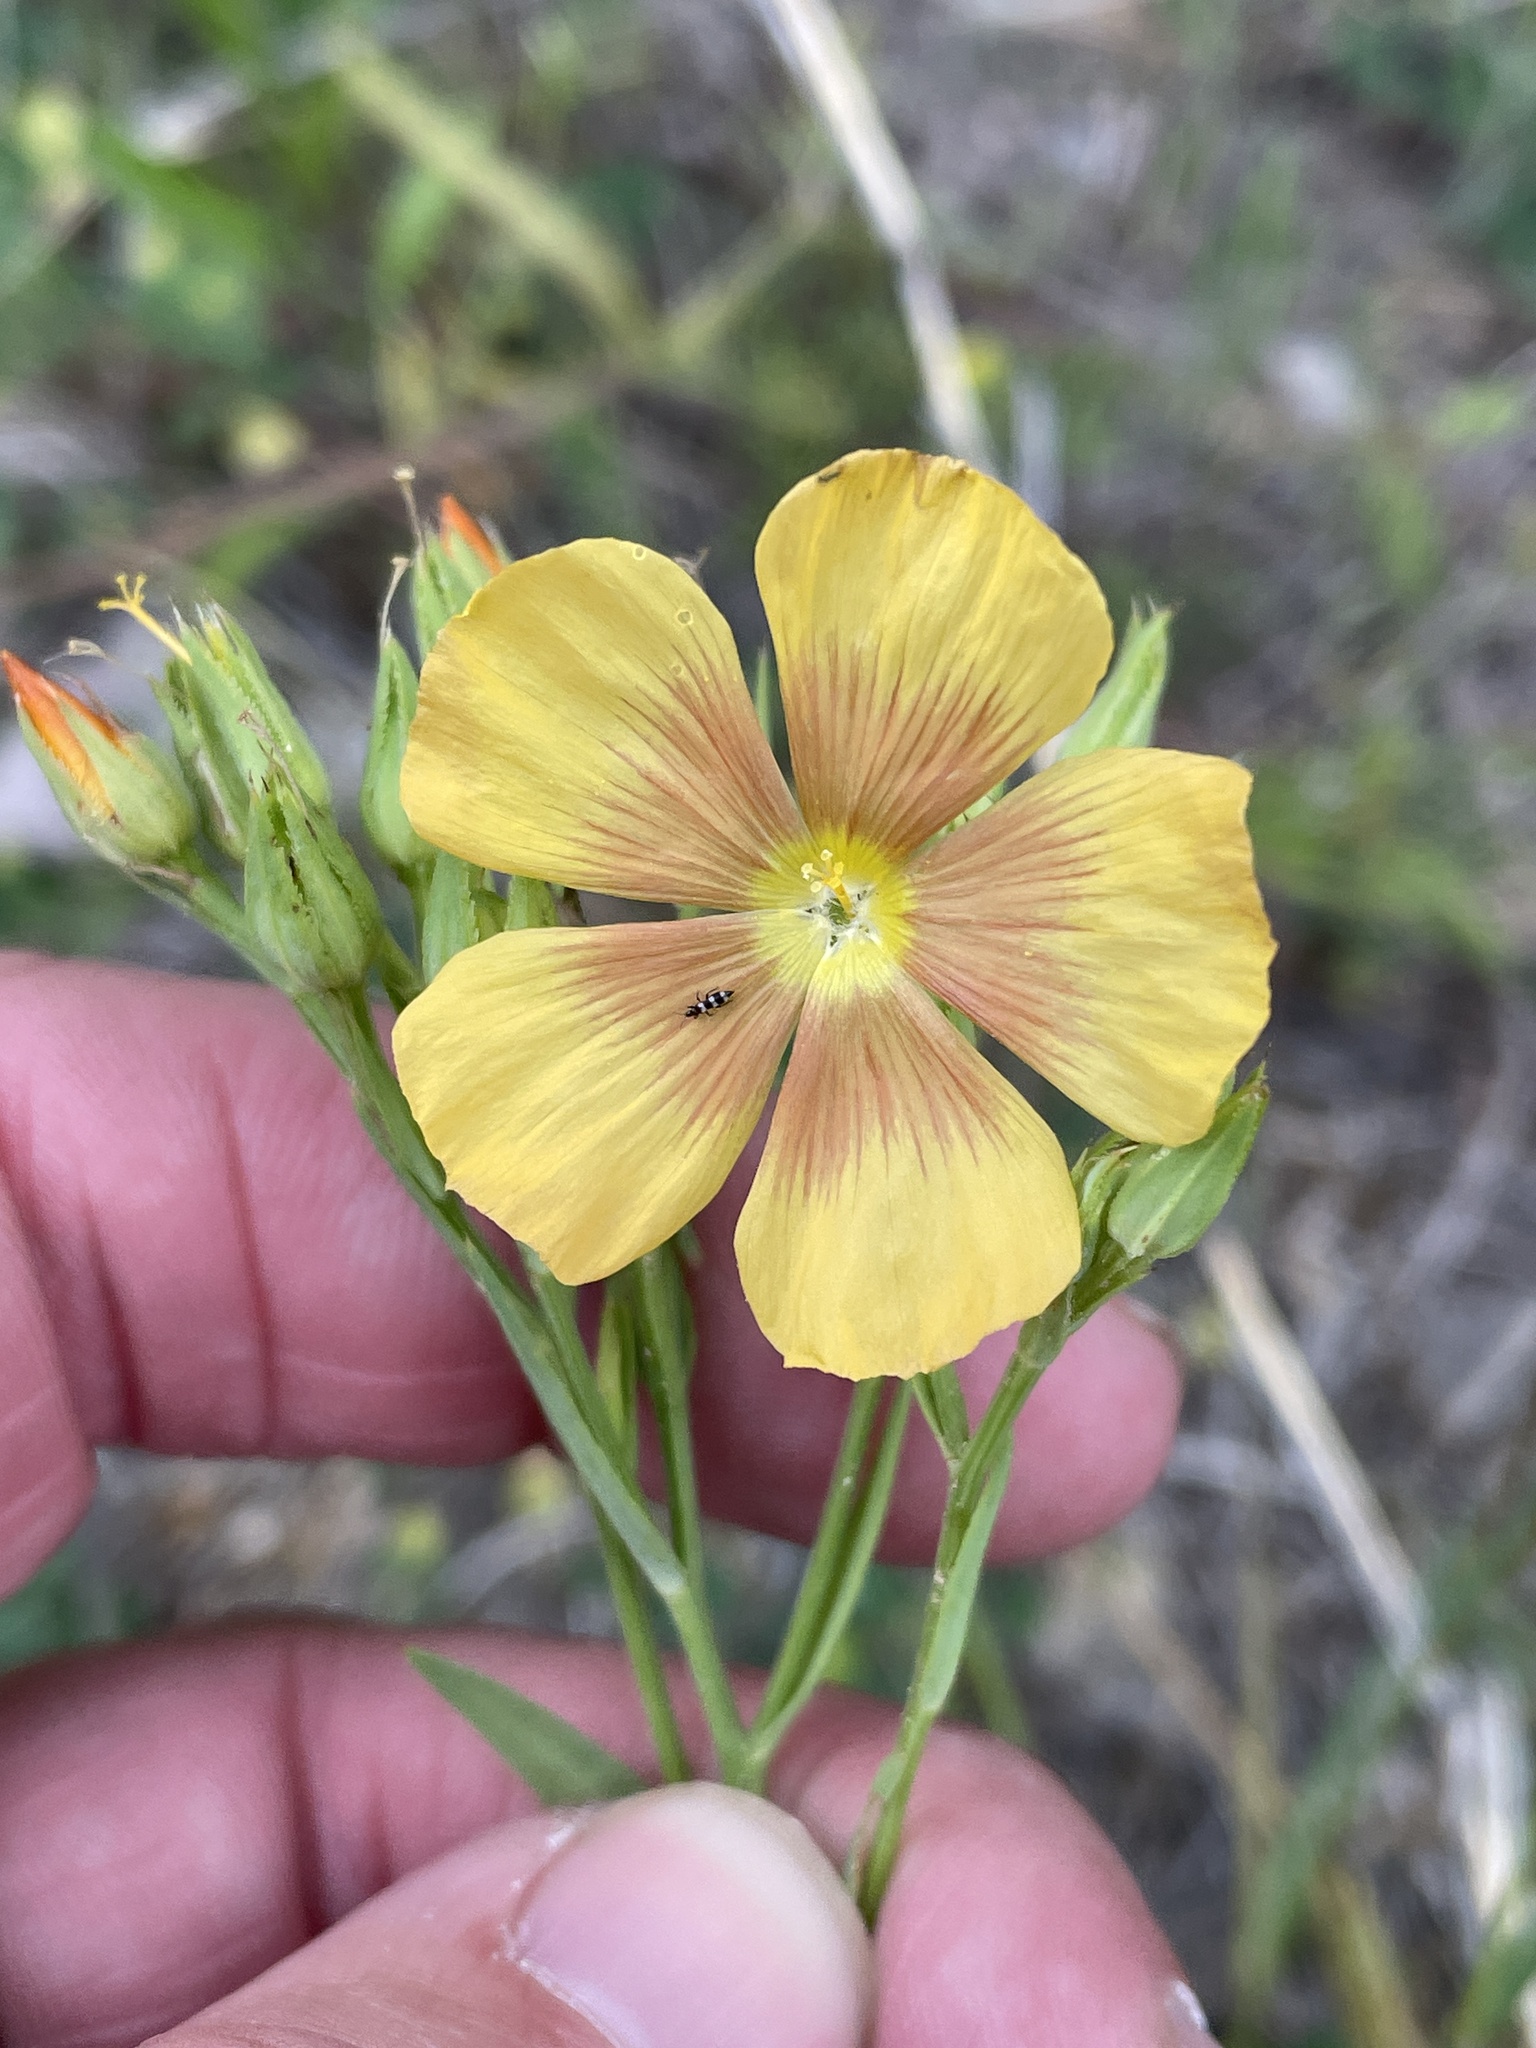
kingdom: Plantae
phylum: Tracheophyta
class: Magnoliopsida
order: Malpighiales
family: Linaceae
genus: Linum
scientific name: Linum rigidum
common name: Stiff-stem flax
